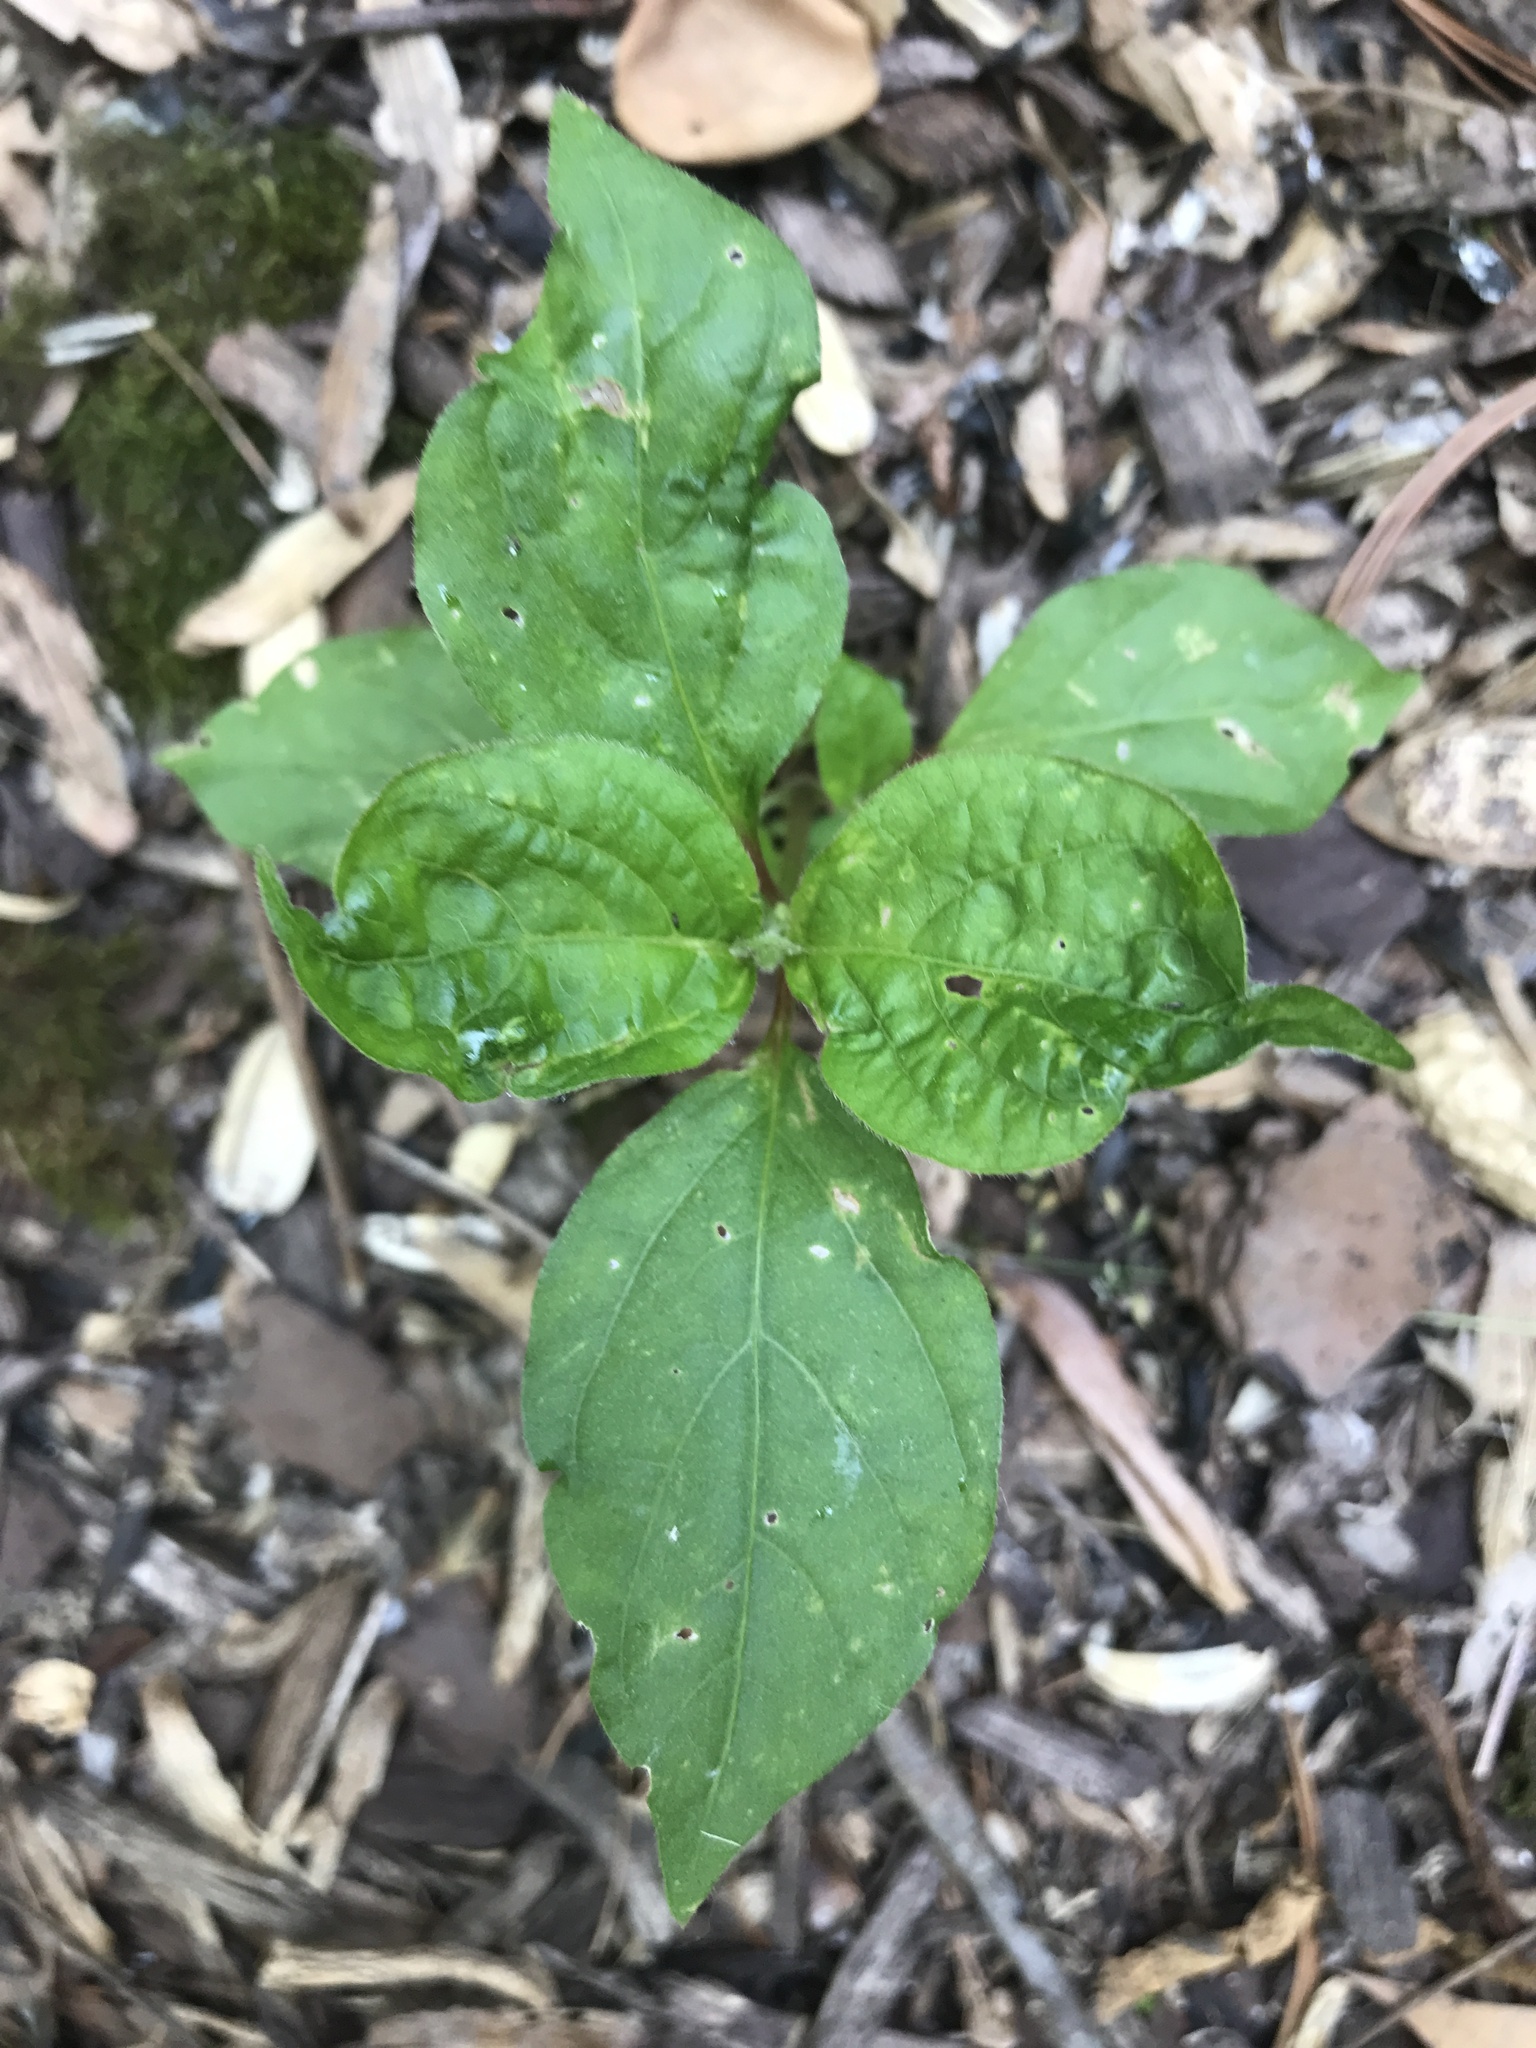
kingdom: Plantae
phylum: Tracheophyta
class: Magnoliopsida
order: Caryophyllales
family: Amaranthaceae
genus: Achyranthes
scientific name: Achyranthes bidentata
